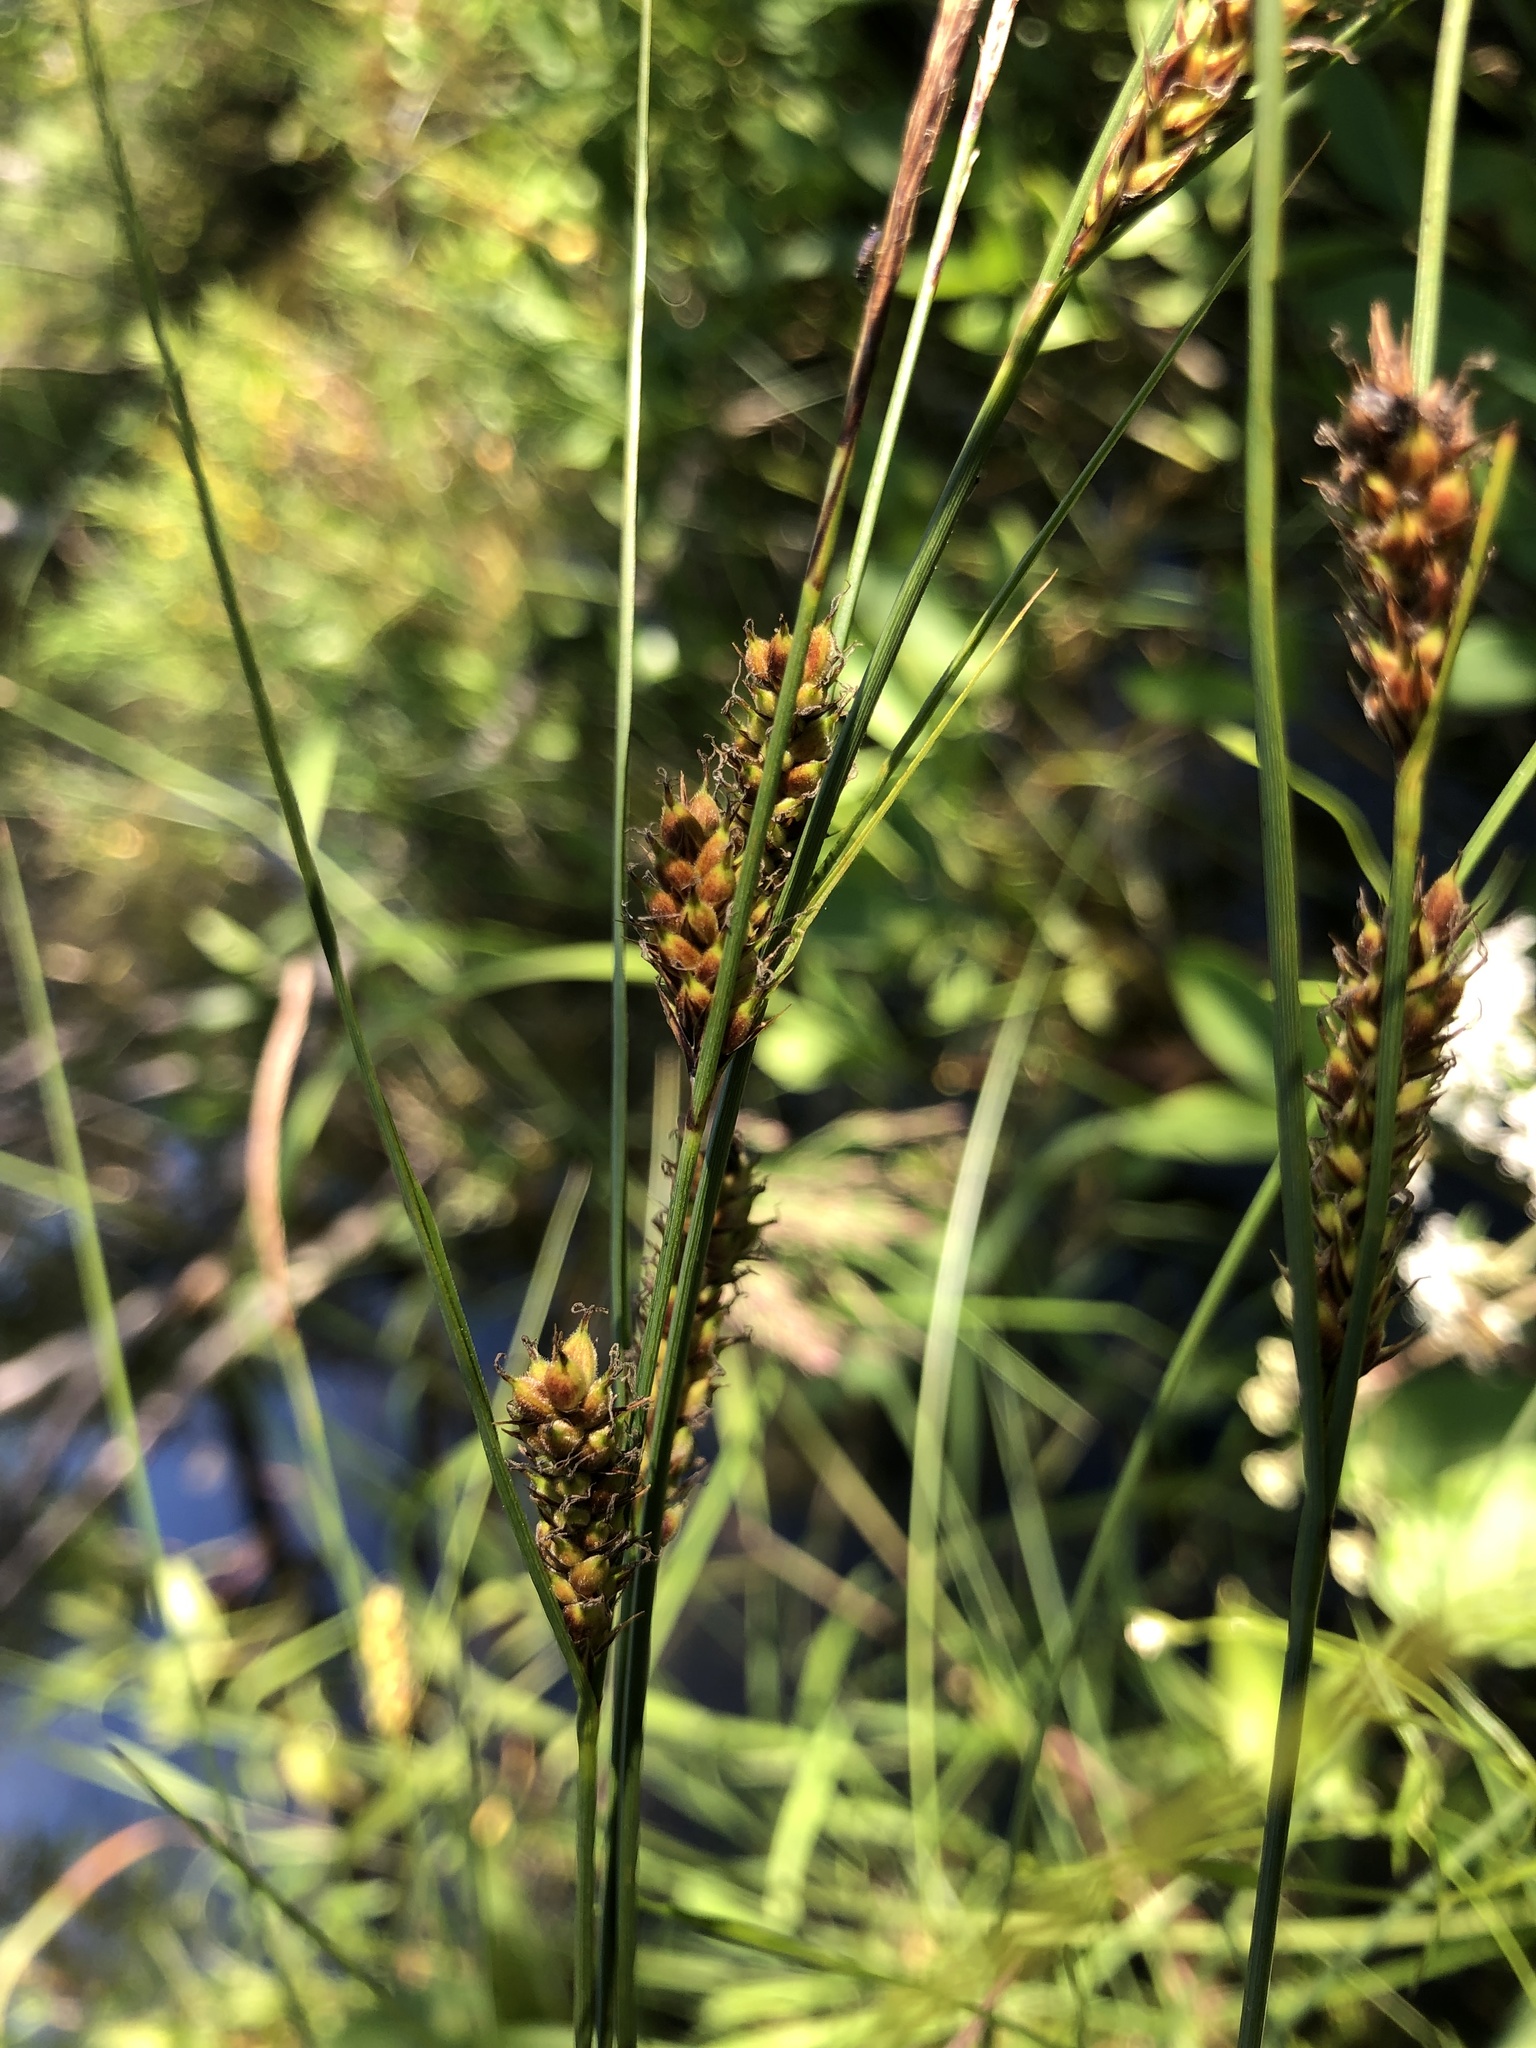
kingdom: Plantae
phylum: Tracheophyta
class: Liliopsida
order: Poales
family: Cyperaceae
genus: Carex
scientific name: Carex lasiocarpa
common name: Slender sedge
